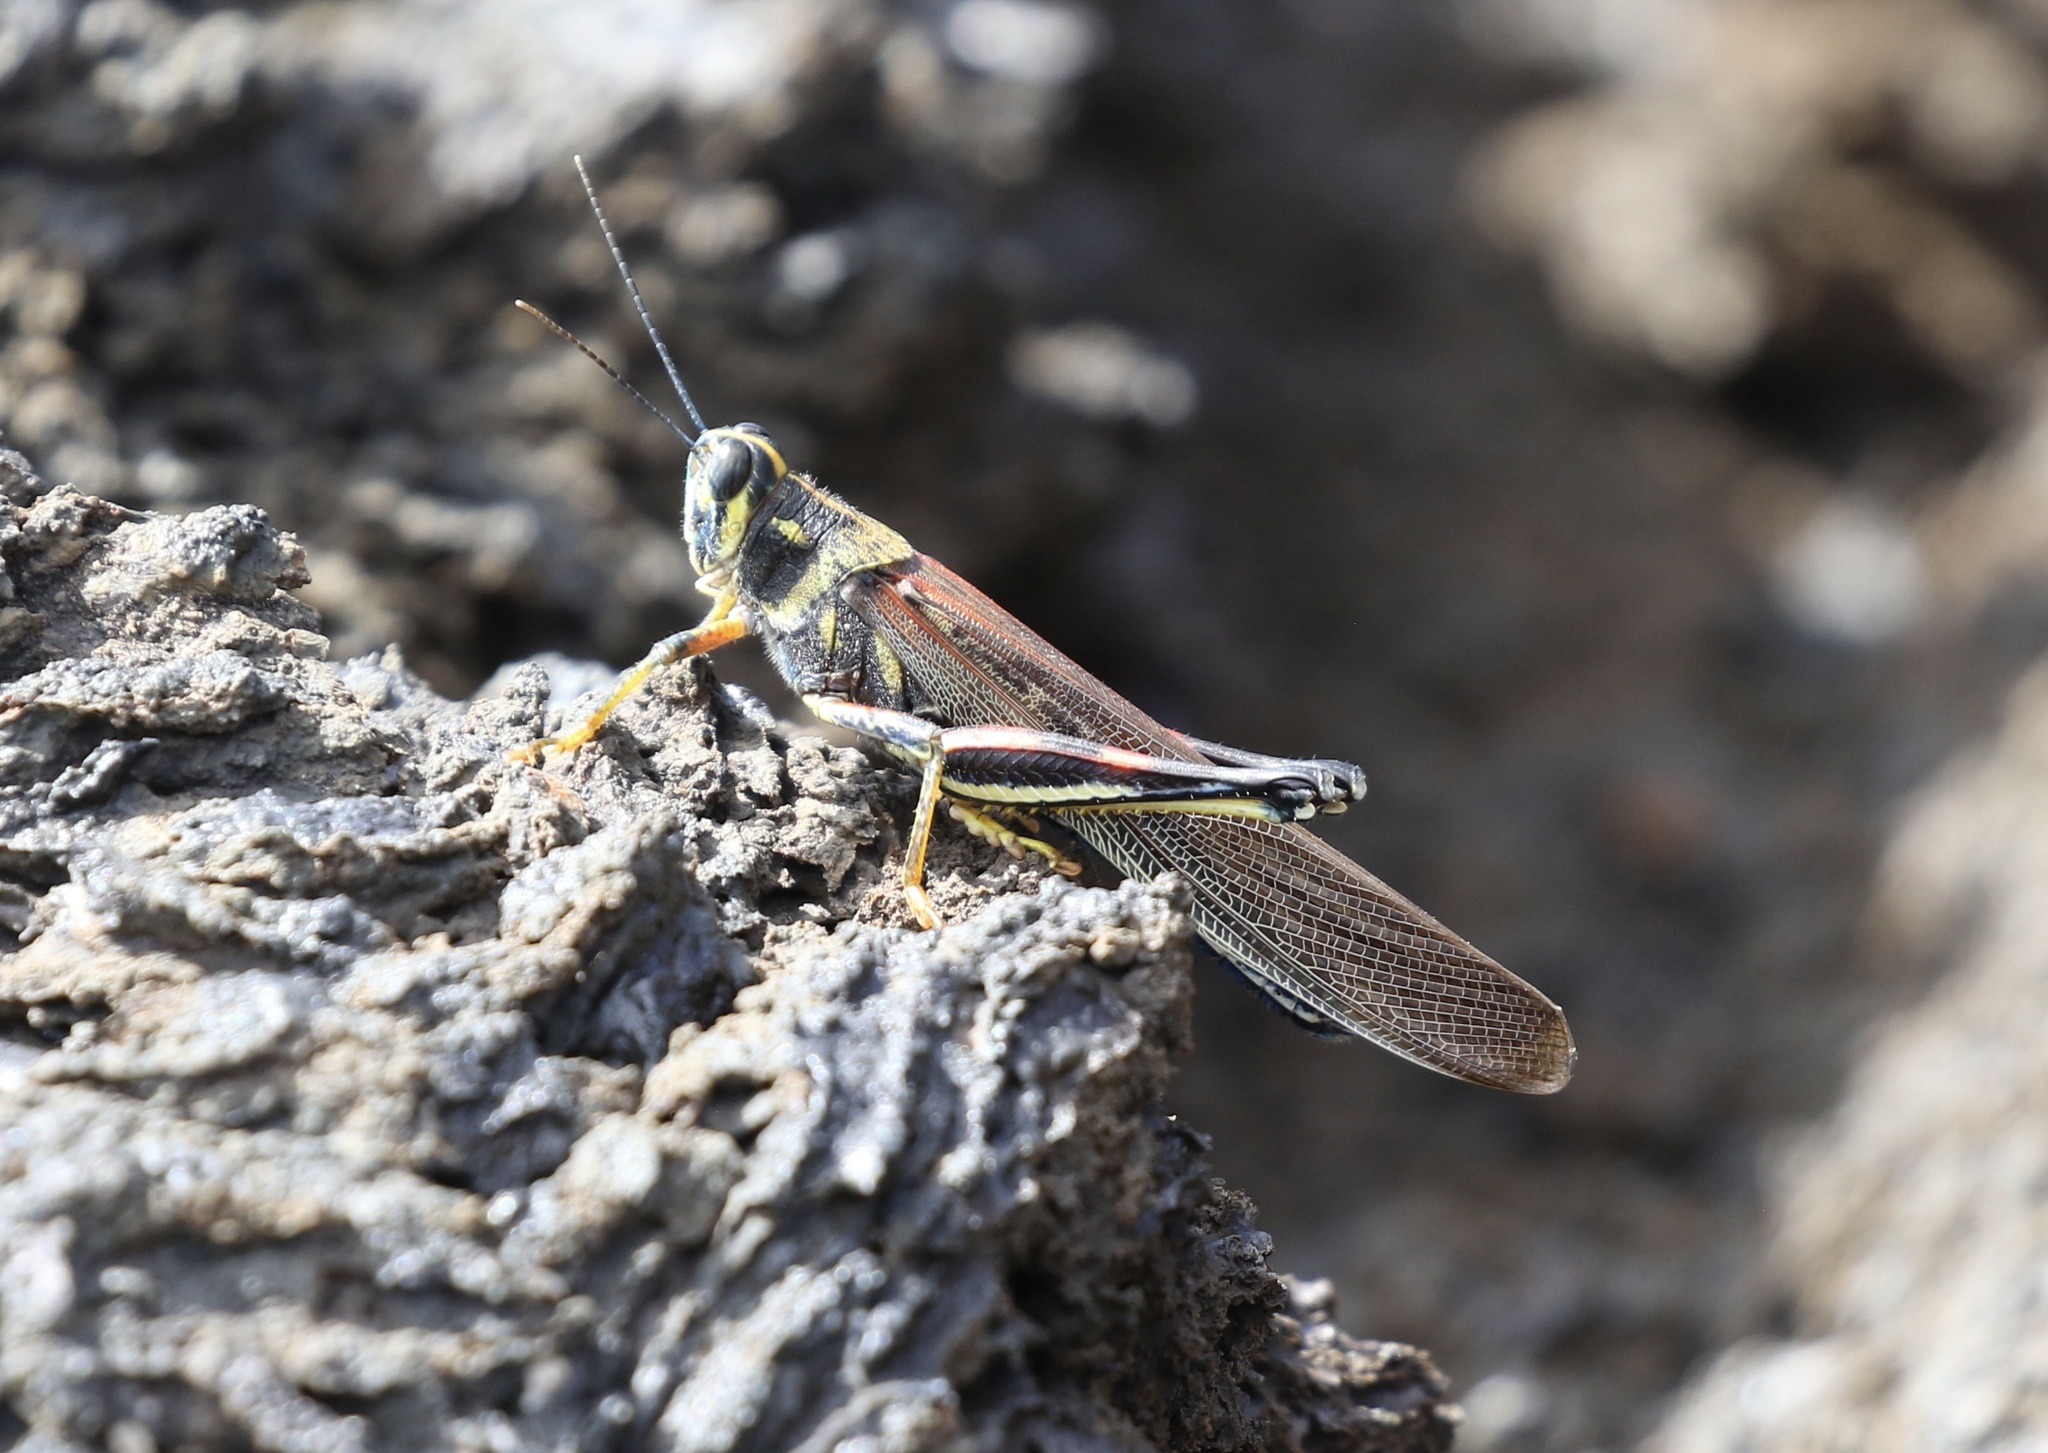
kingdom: Animalia
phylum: Arthropoda
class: Insecta
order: Orthoptera
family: Acrididae
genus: Schistocerca
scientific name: Schistocerca melanocera
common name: Large painted locust
